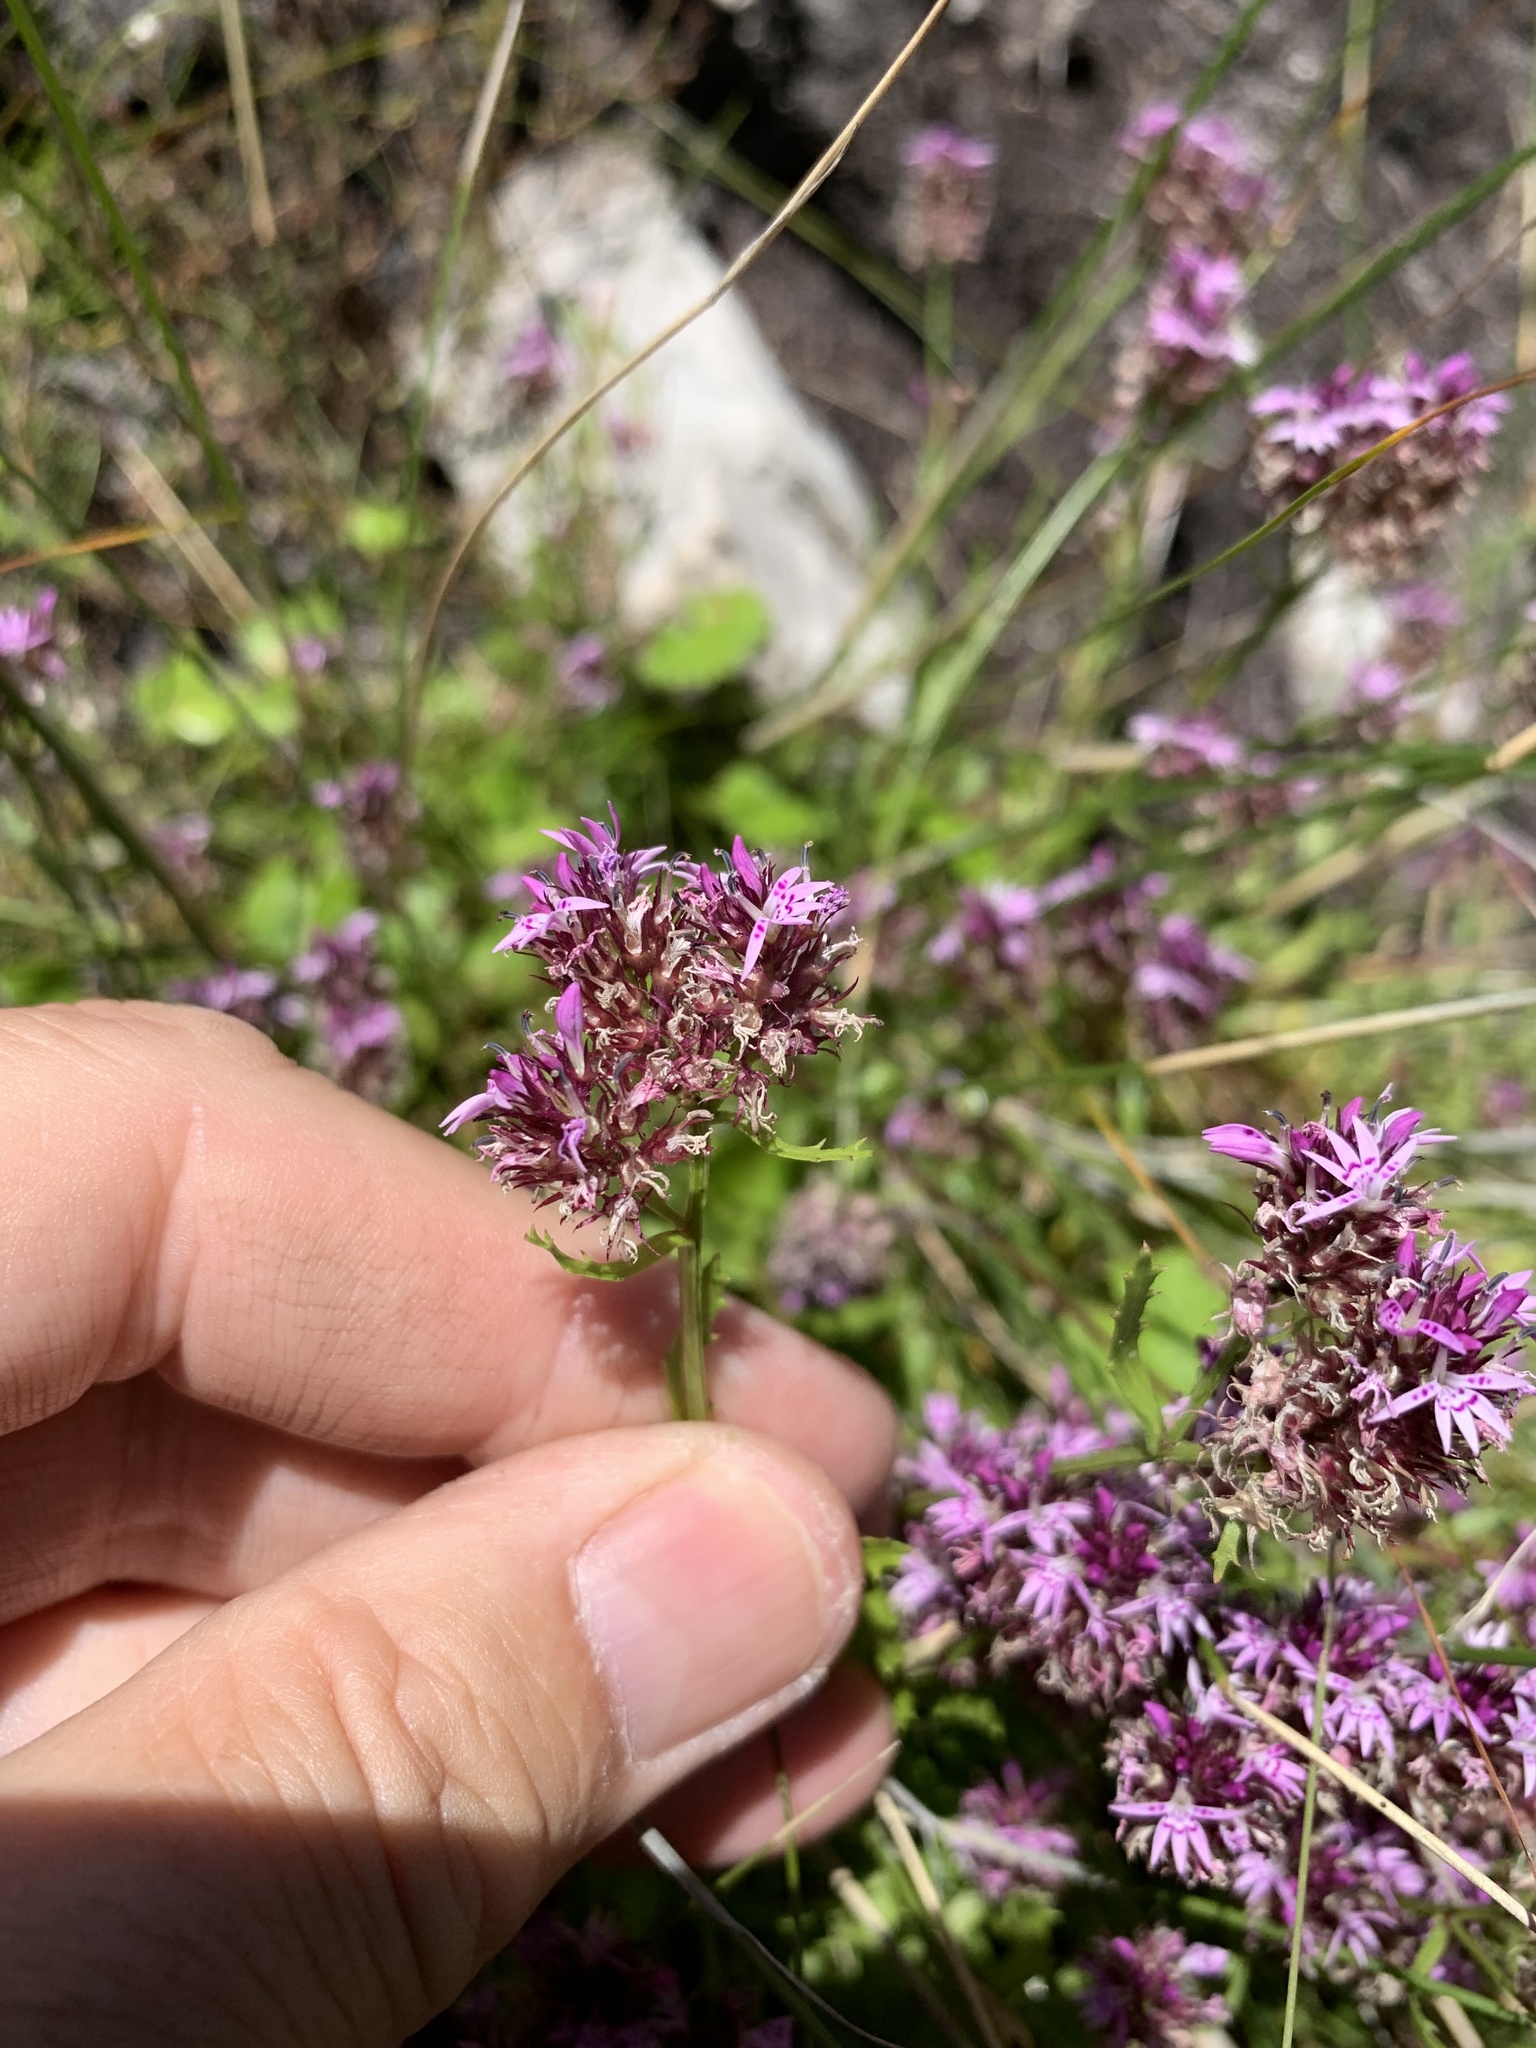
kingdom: Plantae
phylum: Tracheophyta
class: Magnoliopsida
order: Asterales
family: Campanulaceae
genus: Lobelia
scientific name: Lobelia jasionoides
